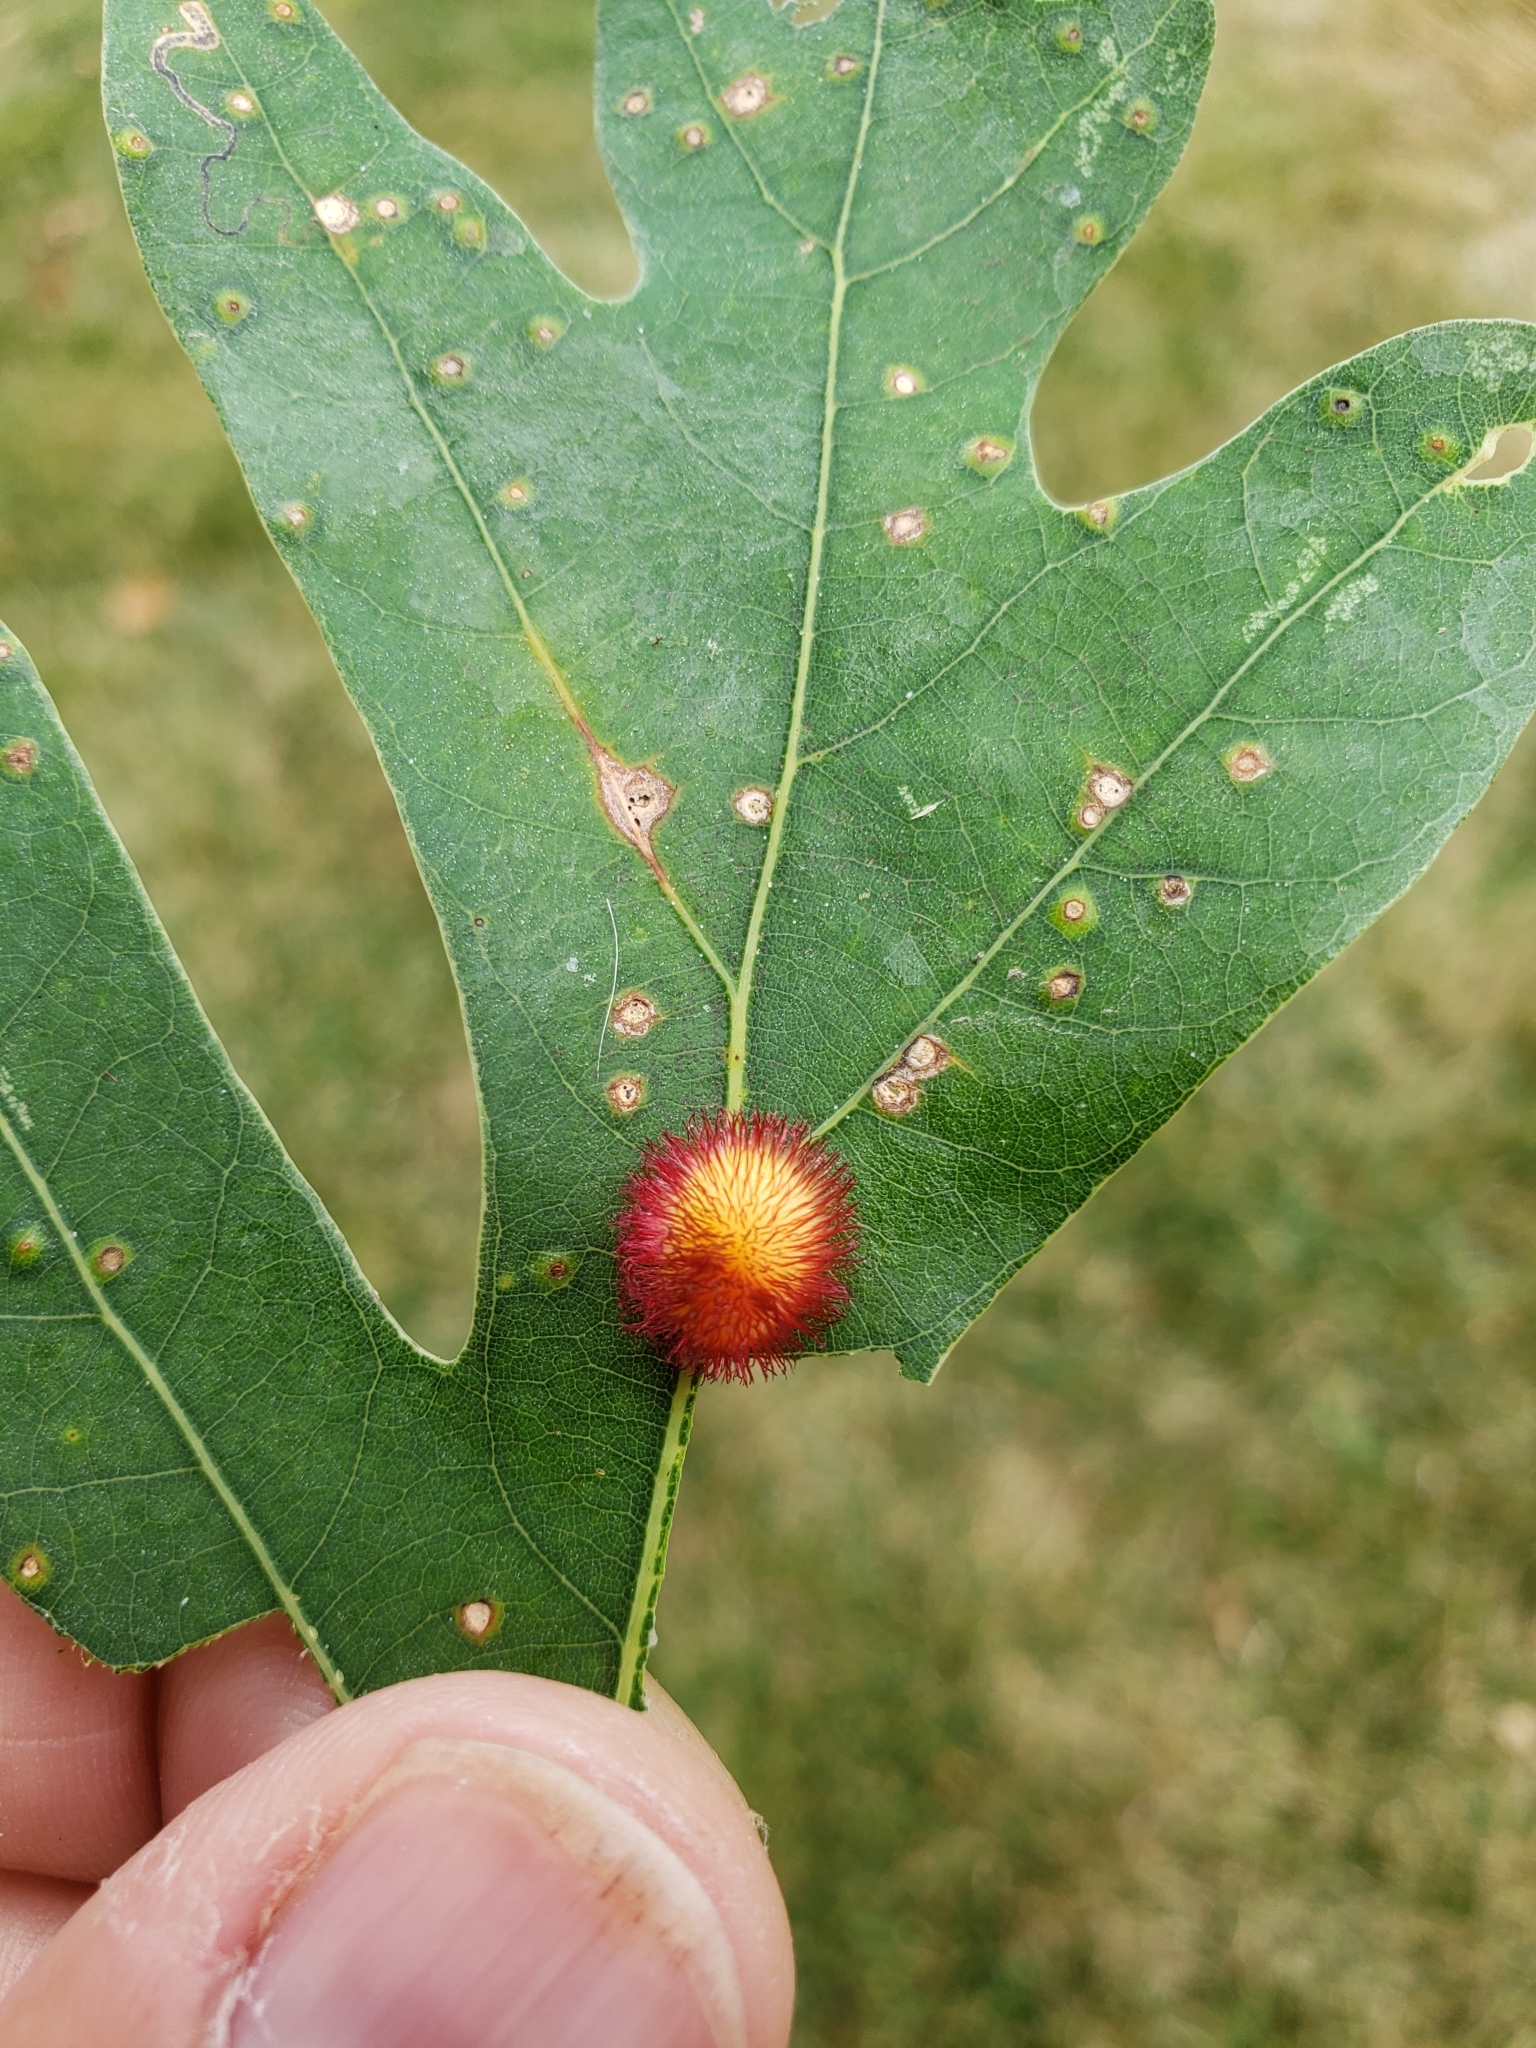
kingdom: Animalia
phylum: Arthropoda
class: Insecta
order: Hymenoptera
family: Cynipidae
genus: Acraspis
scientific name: Acraspis erinacei
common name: Hedgehog gall wasp
